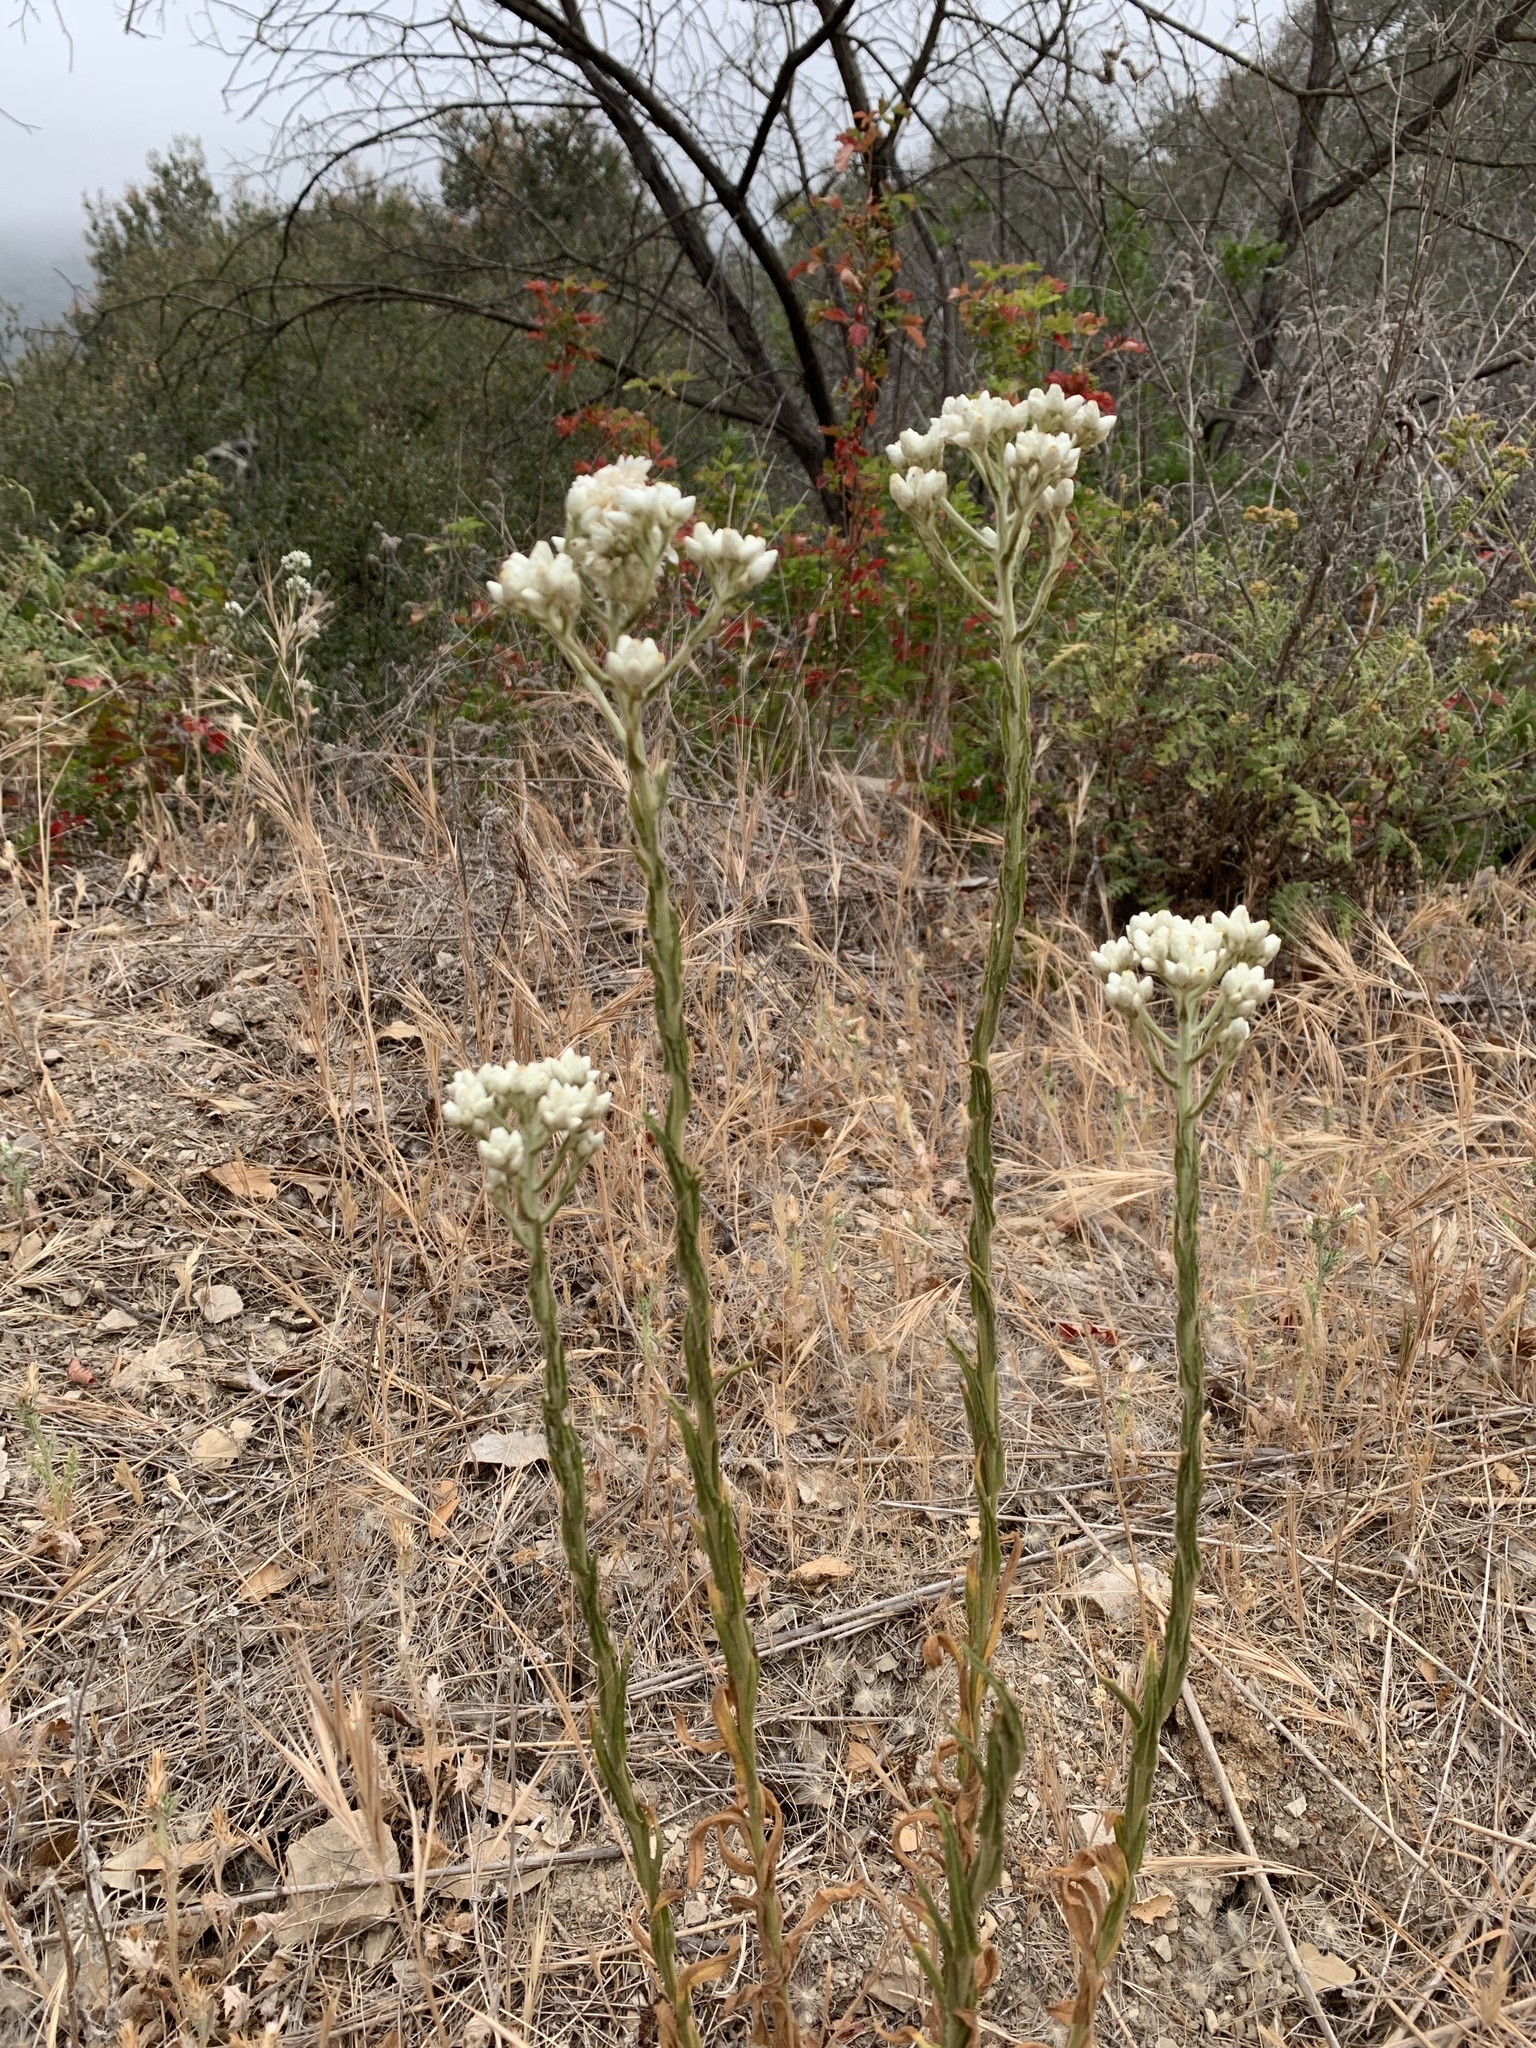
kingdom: Plantae
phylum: Tracheophyta
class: Magnoliopsida
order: Asterales
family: Asteraceae
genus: Pseudognaphalium
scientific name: Pseudognaphalium californicum
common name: California rabbit-tobacco
